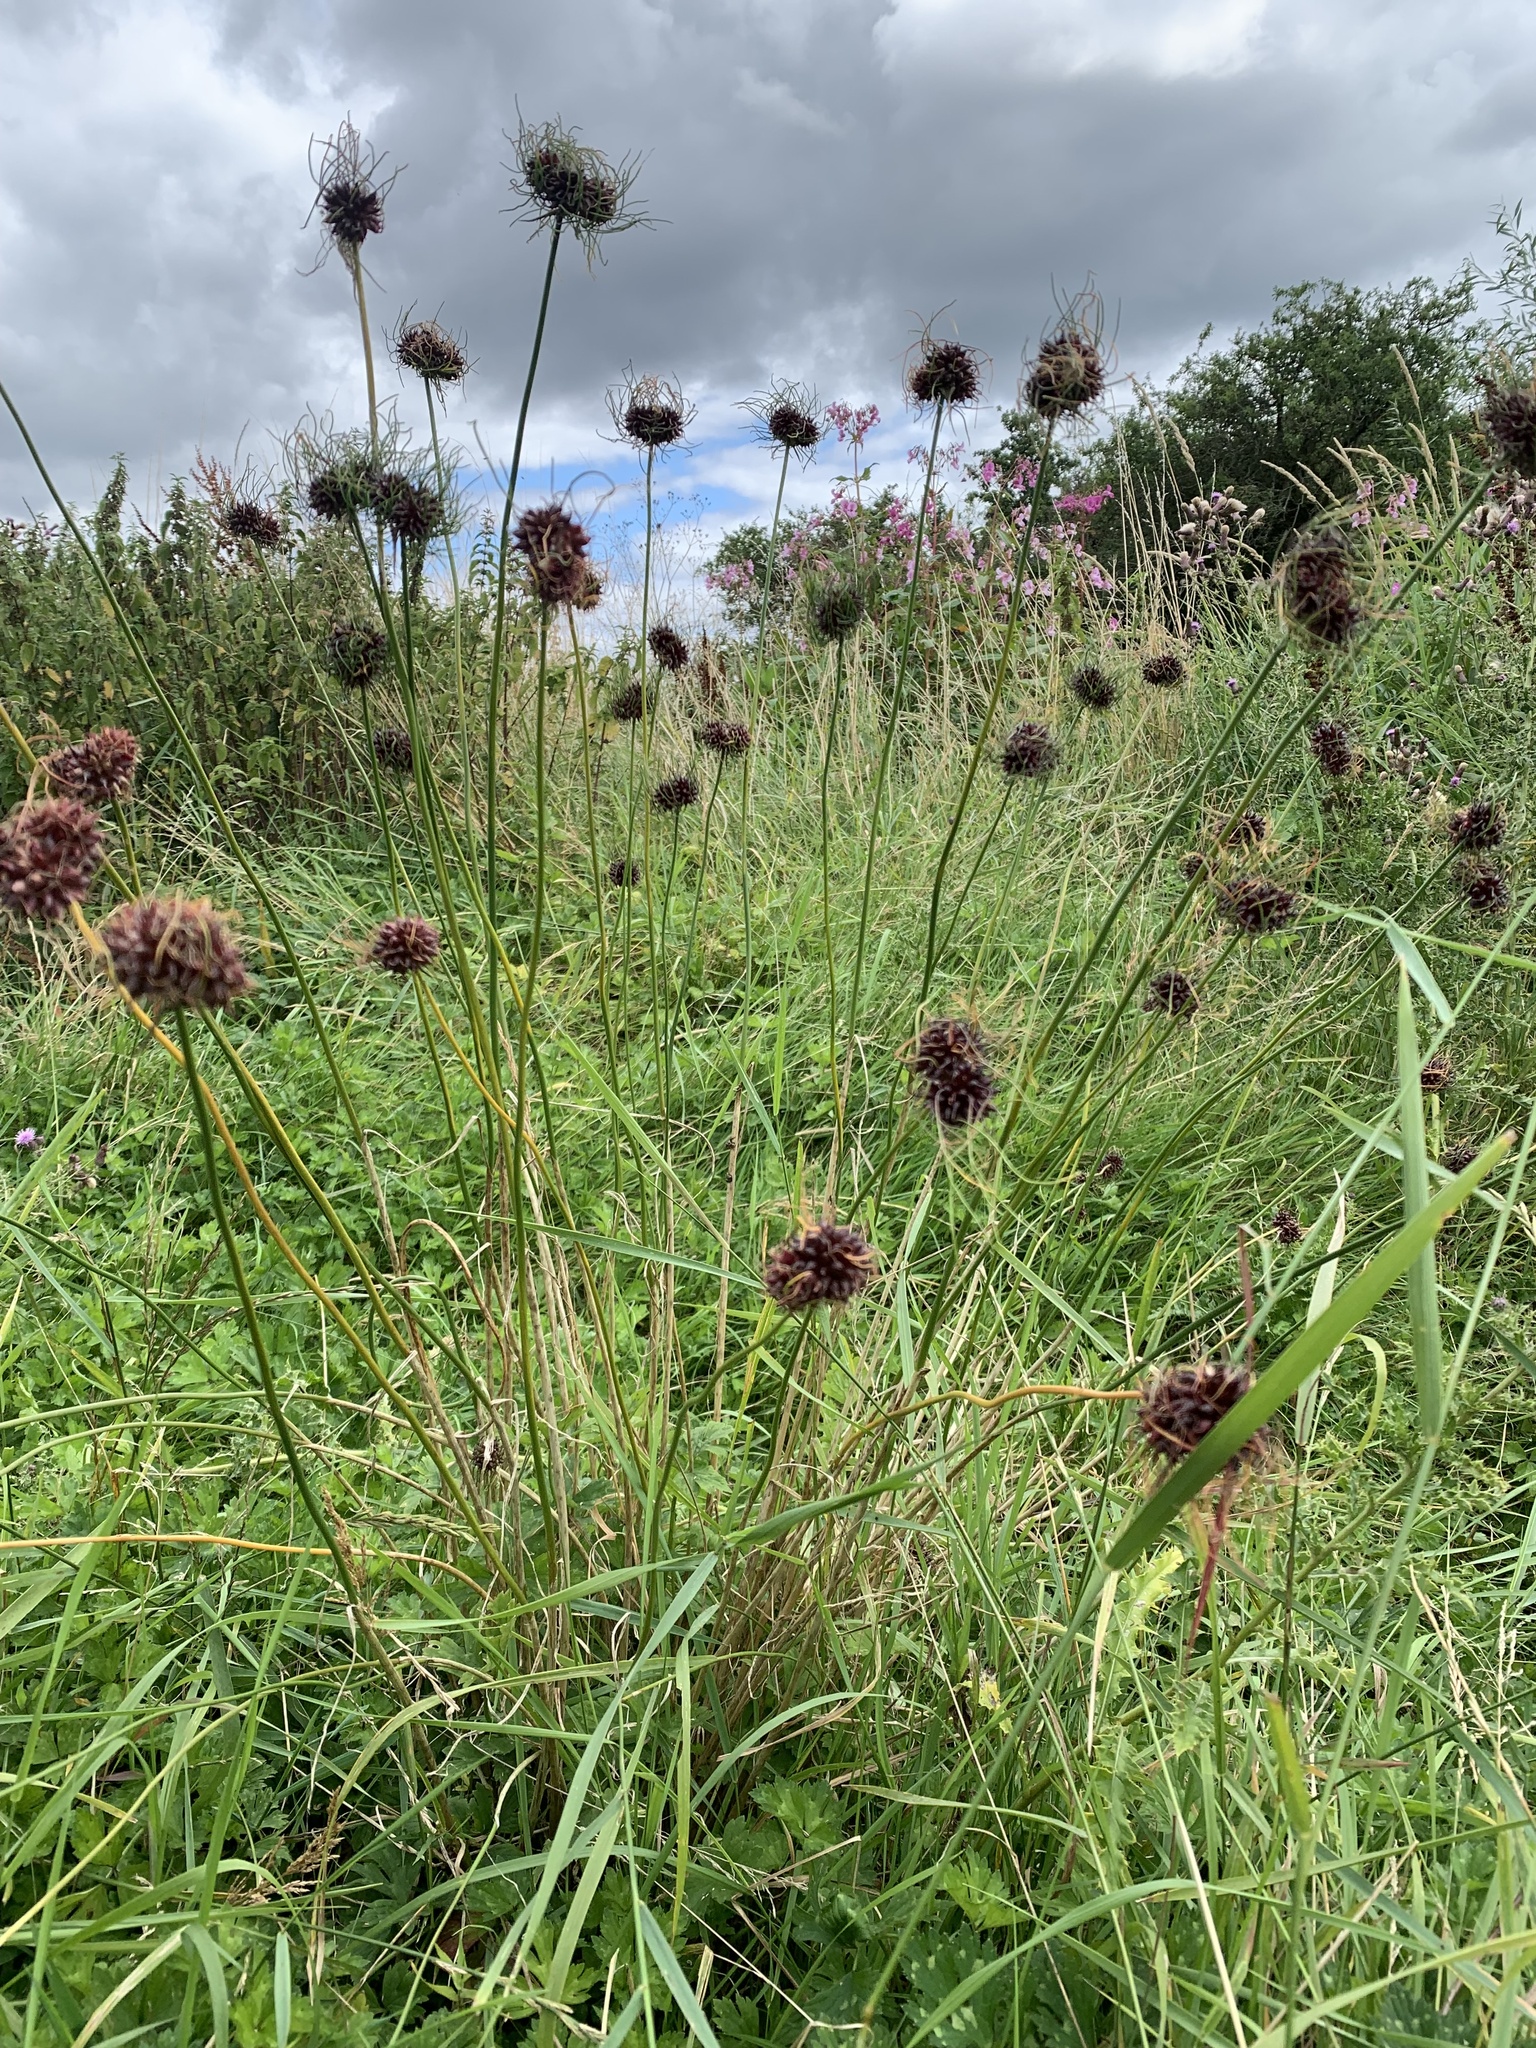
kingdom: Plantae
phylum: Tracheophyta
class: Liliopsida
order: Asparagales
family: Amaryllidaceae
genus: Allium
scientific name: Allium vineale
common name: Crow garlic
